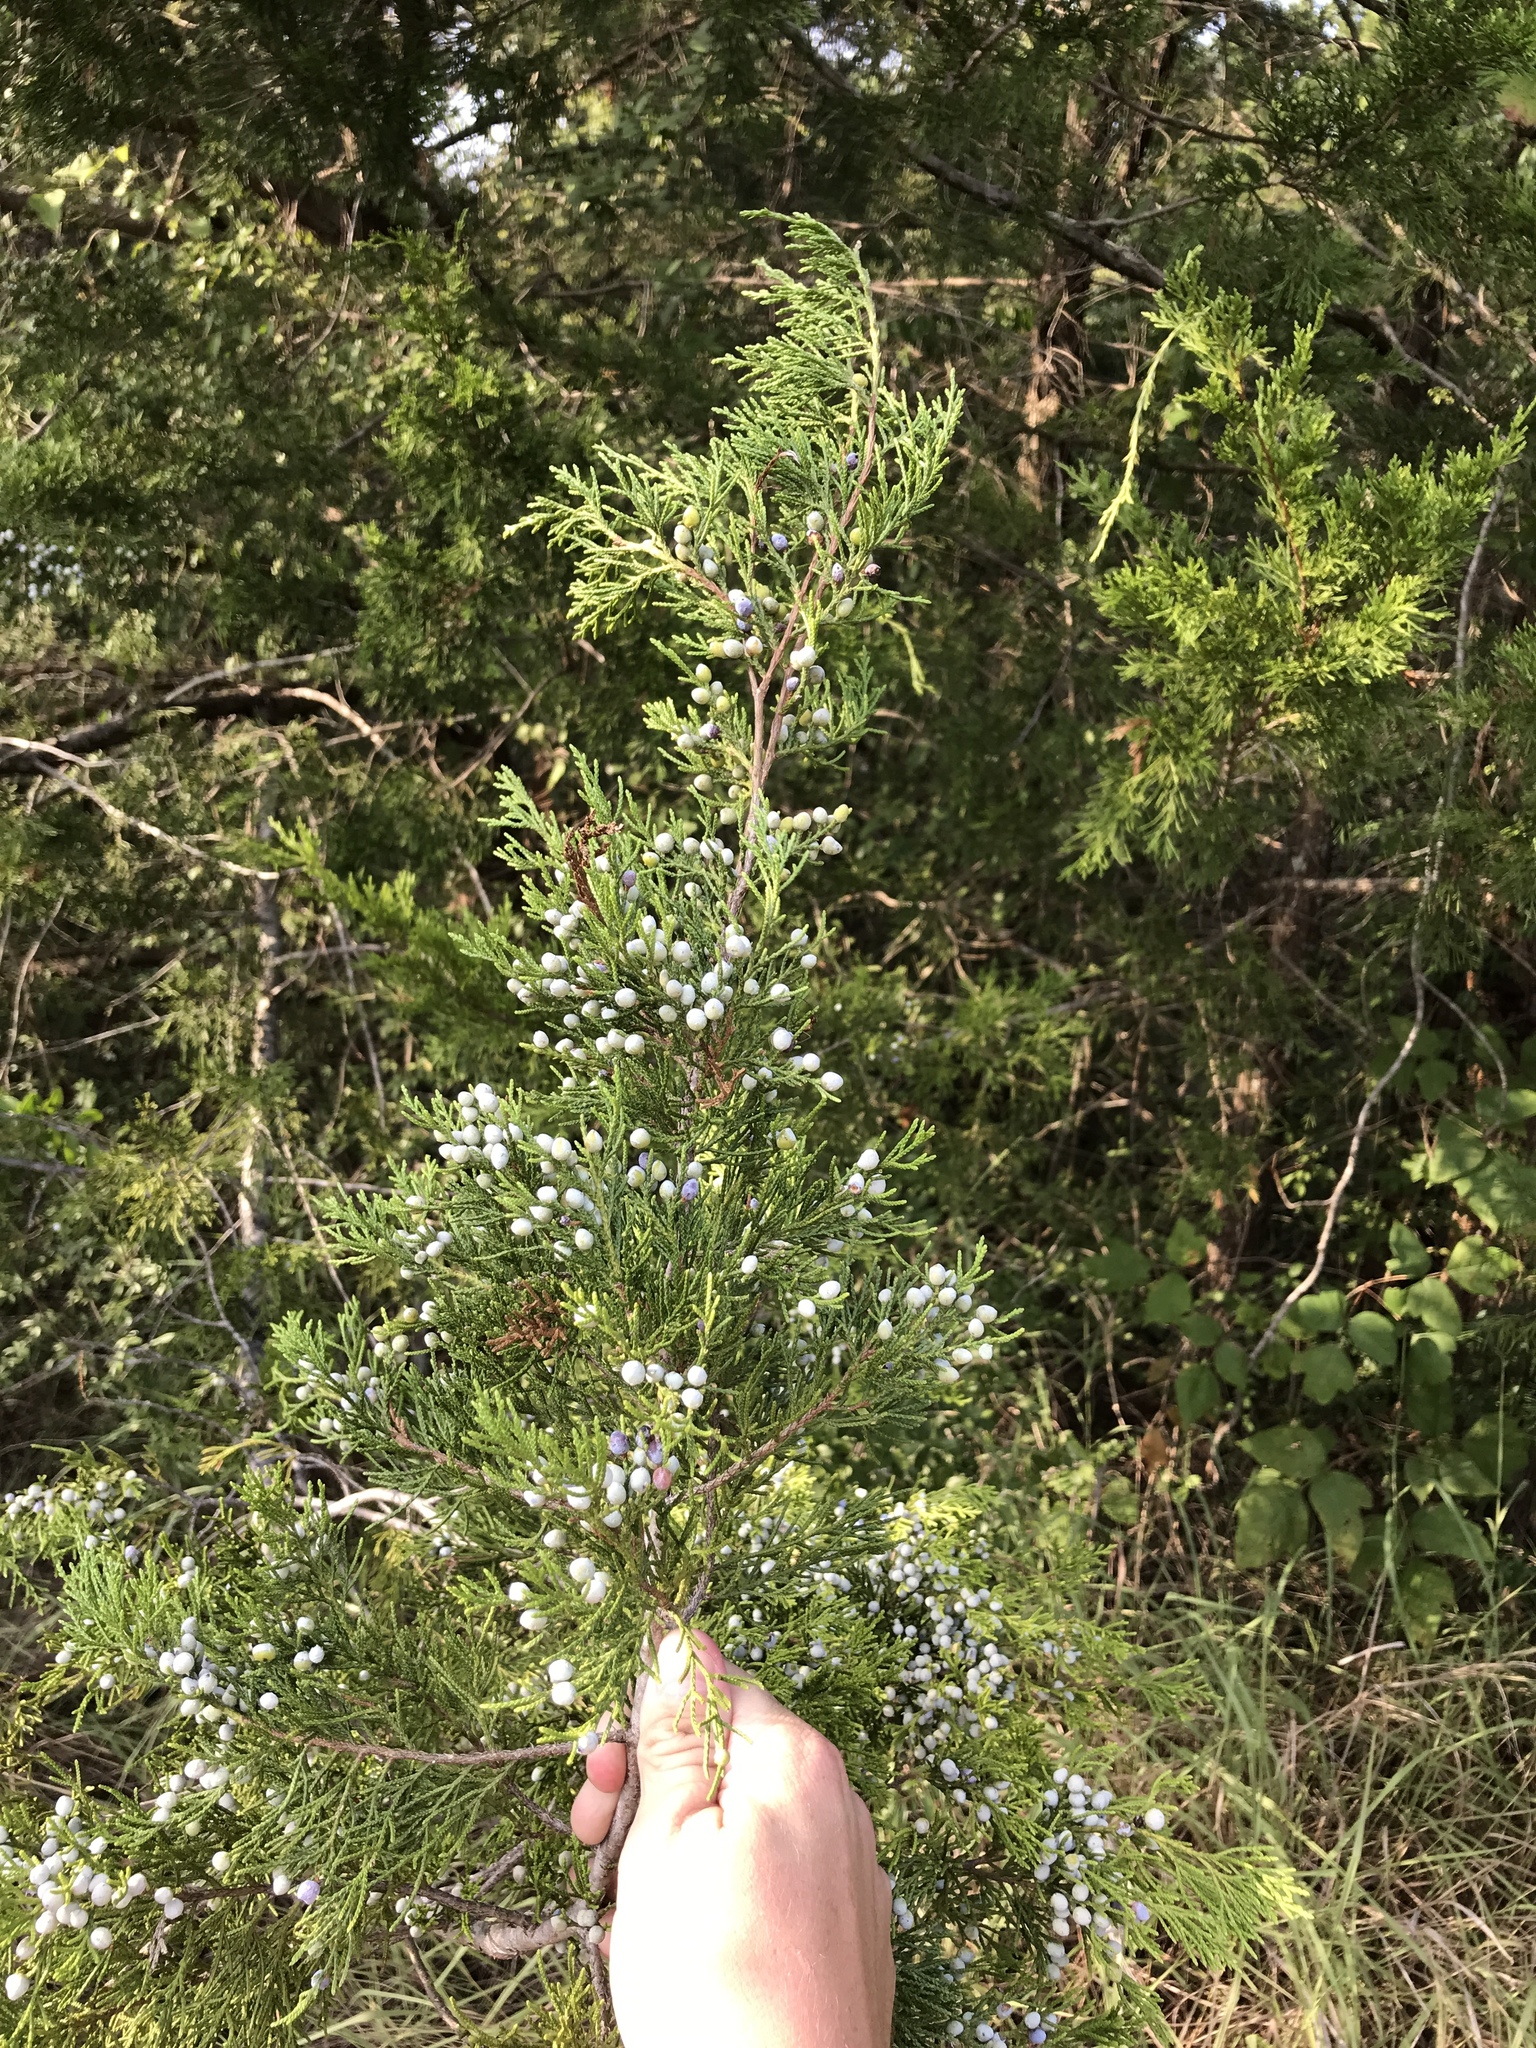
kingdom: Plantae
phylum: Tracheophyta
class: Pinopsida
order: Pinales
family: Cupressaceae
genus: Juniperus
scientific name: Juniperus virginiana
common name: Red juniper
